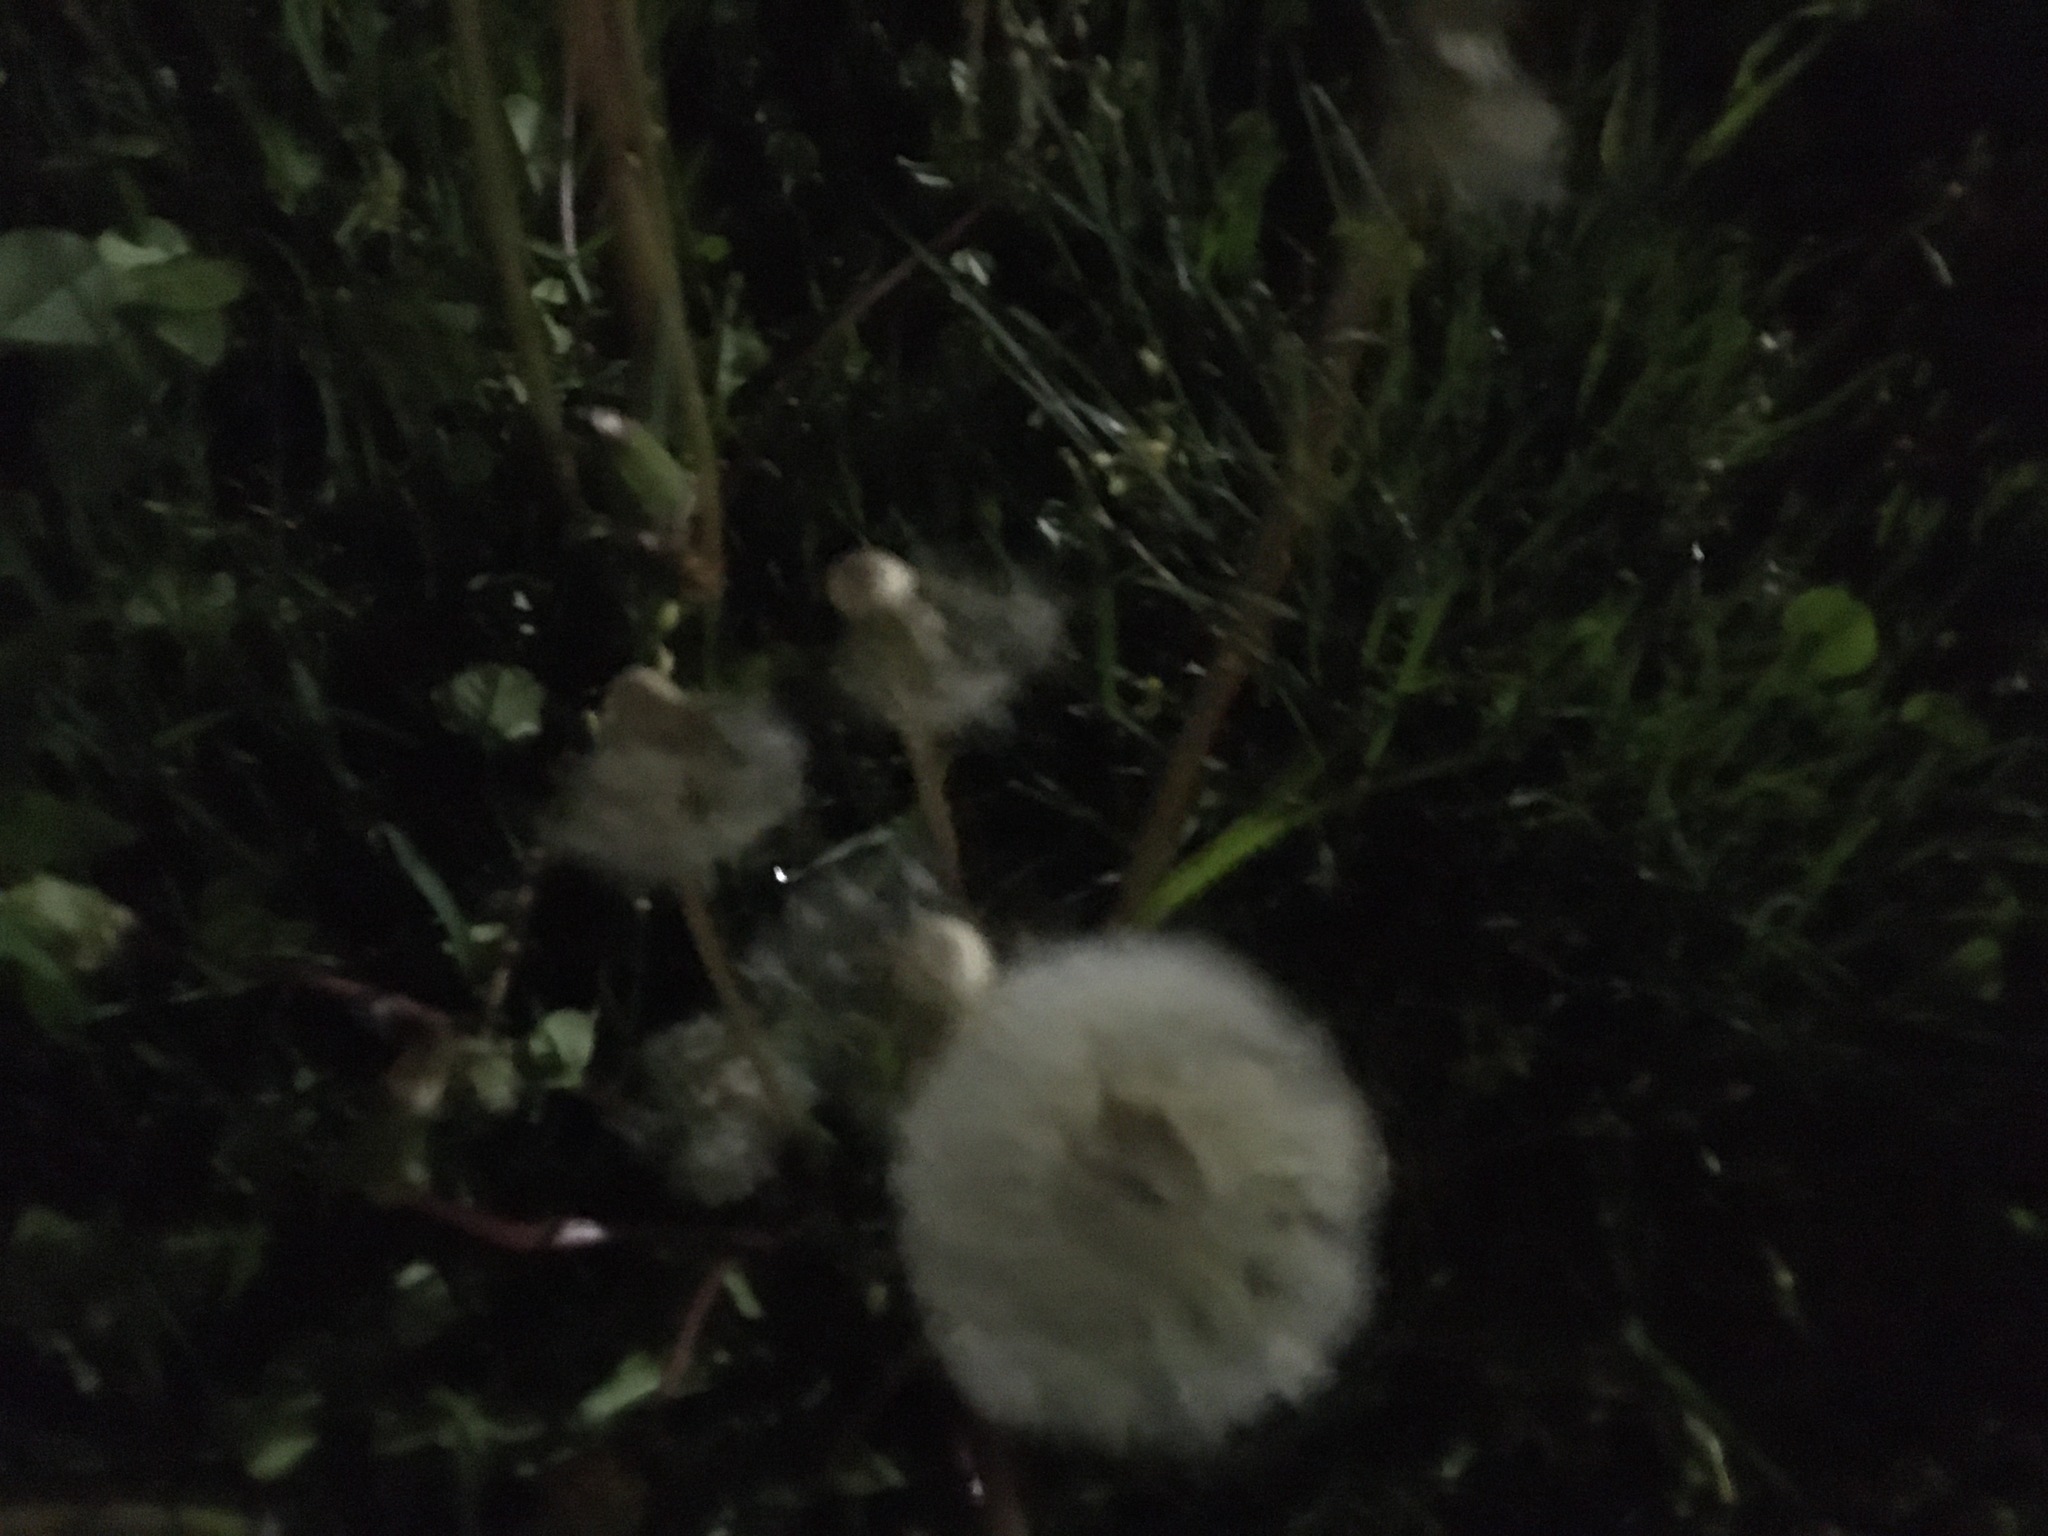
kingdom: Plantae
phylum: Tracheophyta
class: Magnoliopsida
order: Asterales
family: Asteraceae
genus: Taraxacum
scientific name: Taraxacum officinale
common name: Common dandelion
